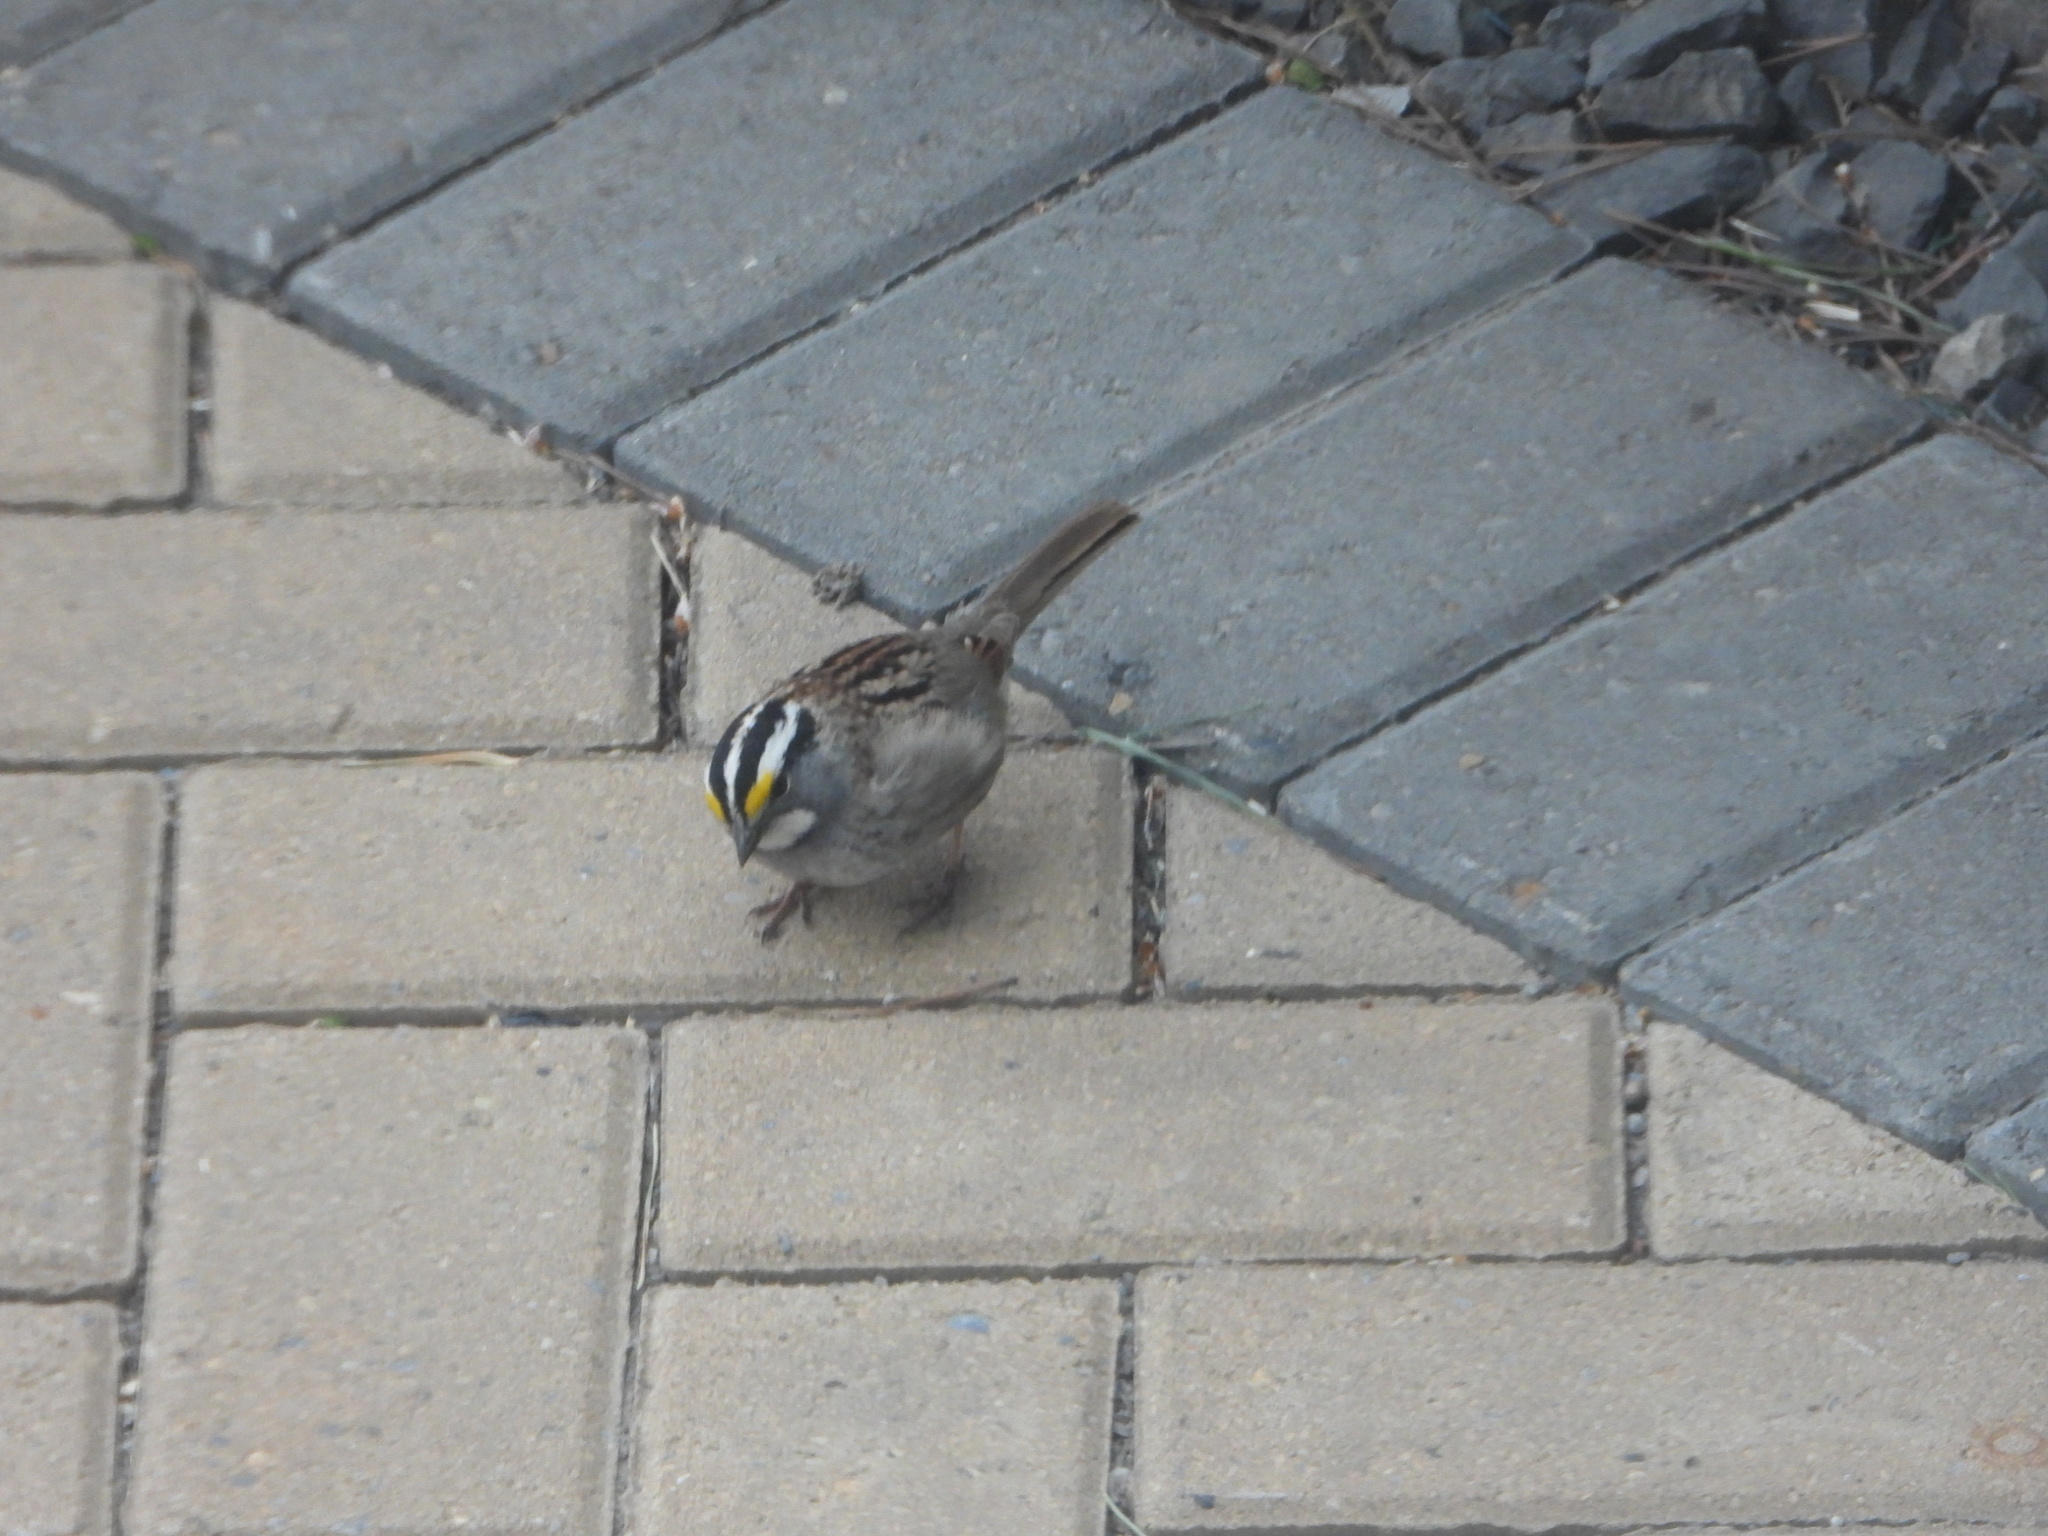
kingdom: Animalia
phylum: Chordata
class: Aves
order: Passeriformes
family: Passerellidae
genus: Zonotrichia
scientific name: Zonotrichia albicollis
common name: White-throated sparrow
